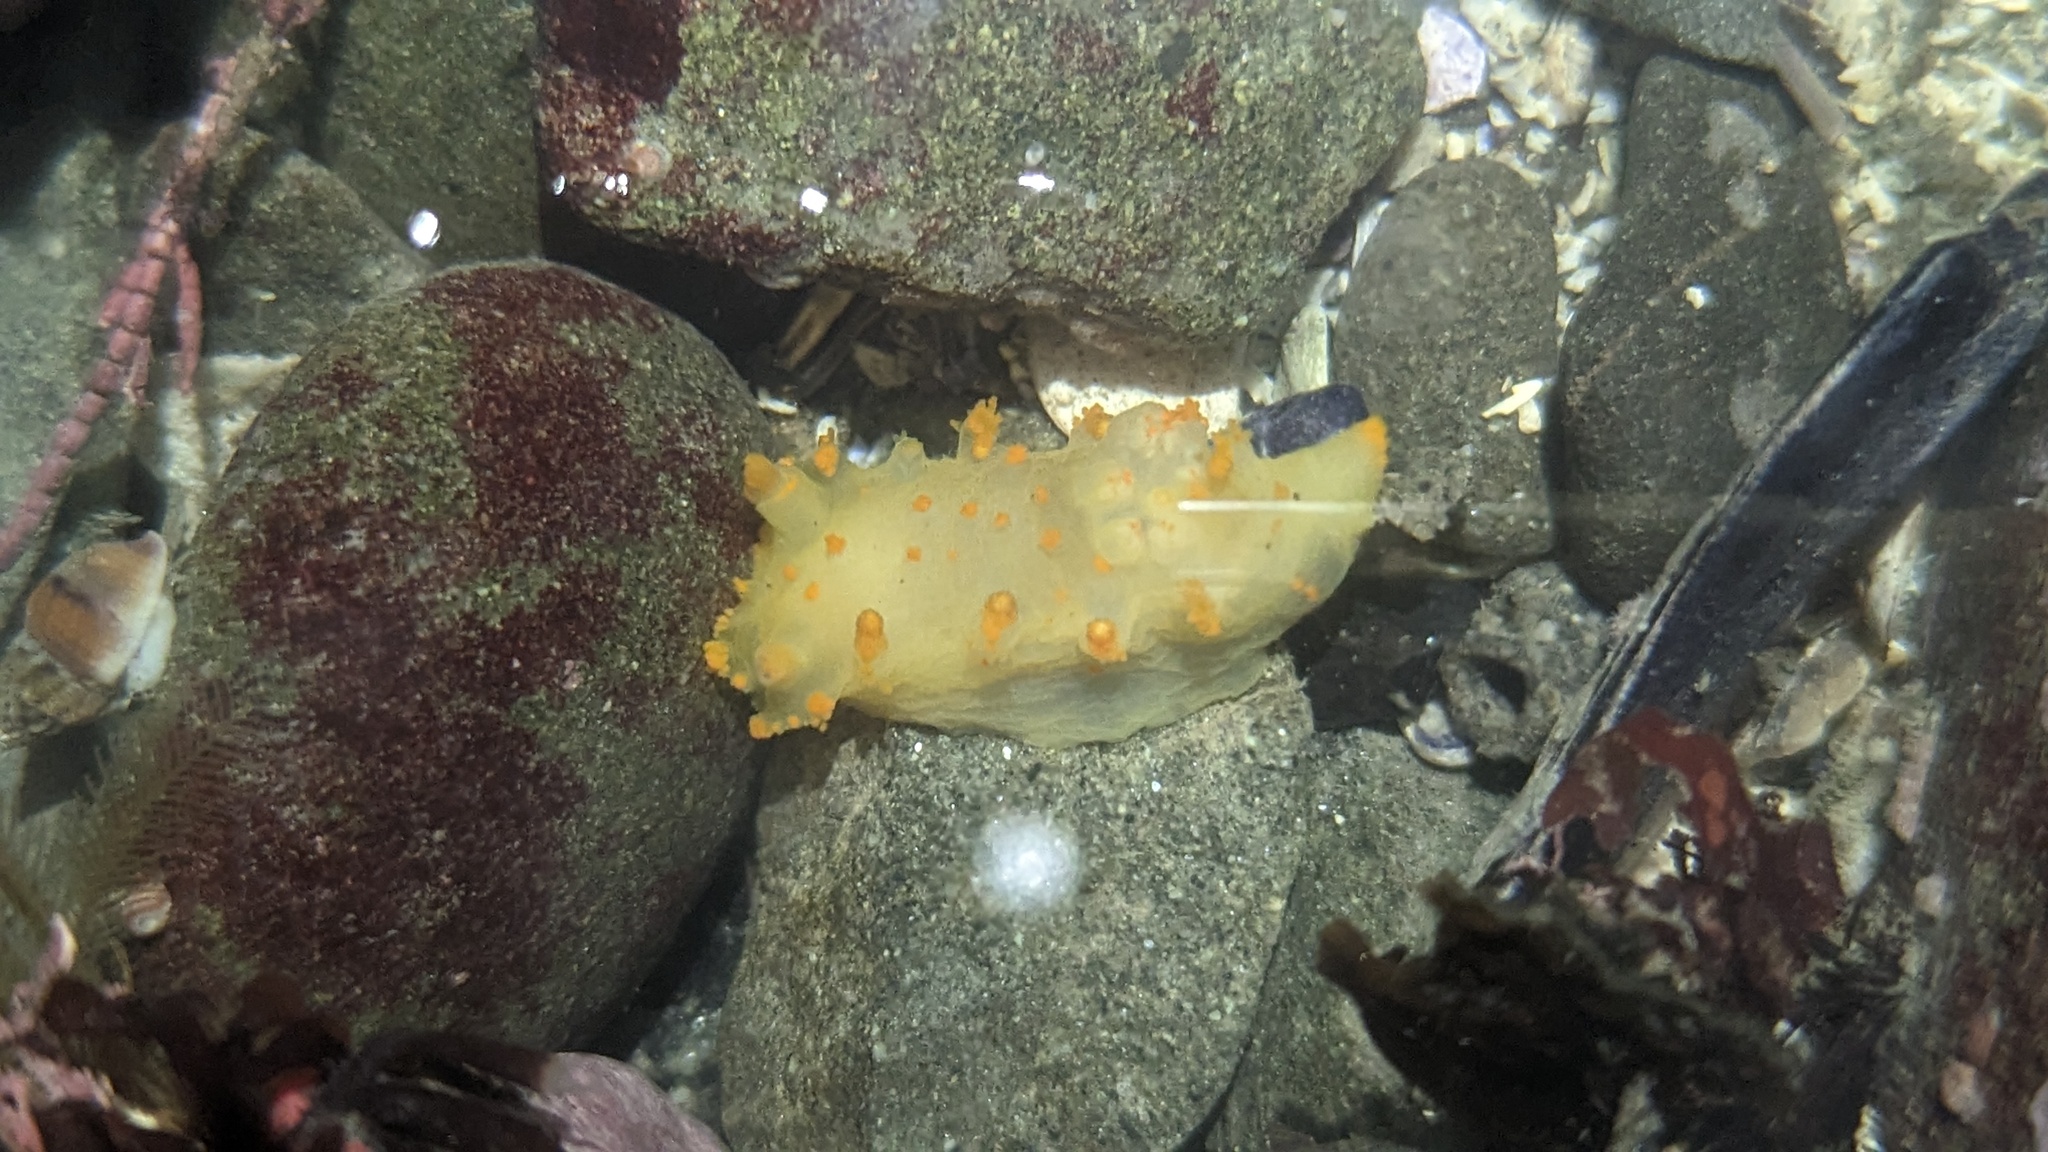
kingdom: Animalia
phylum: Mollusca
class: Gastropoda
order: Nudibranchia
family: Polyceridae
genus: Triopha
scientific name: Triopha modesta
